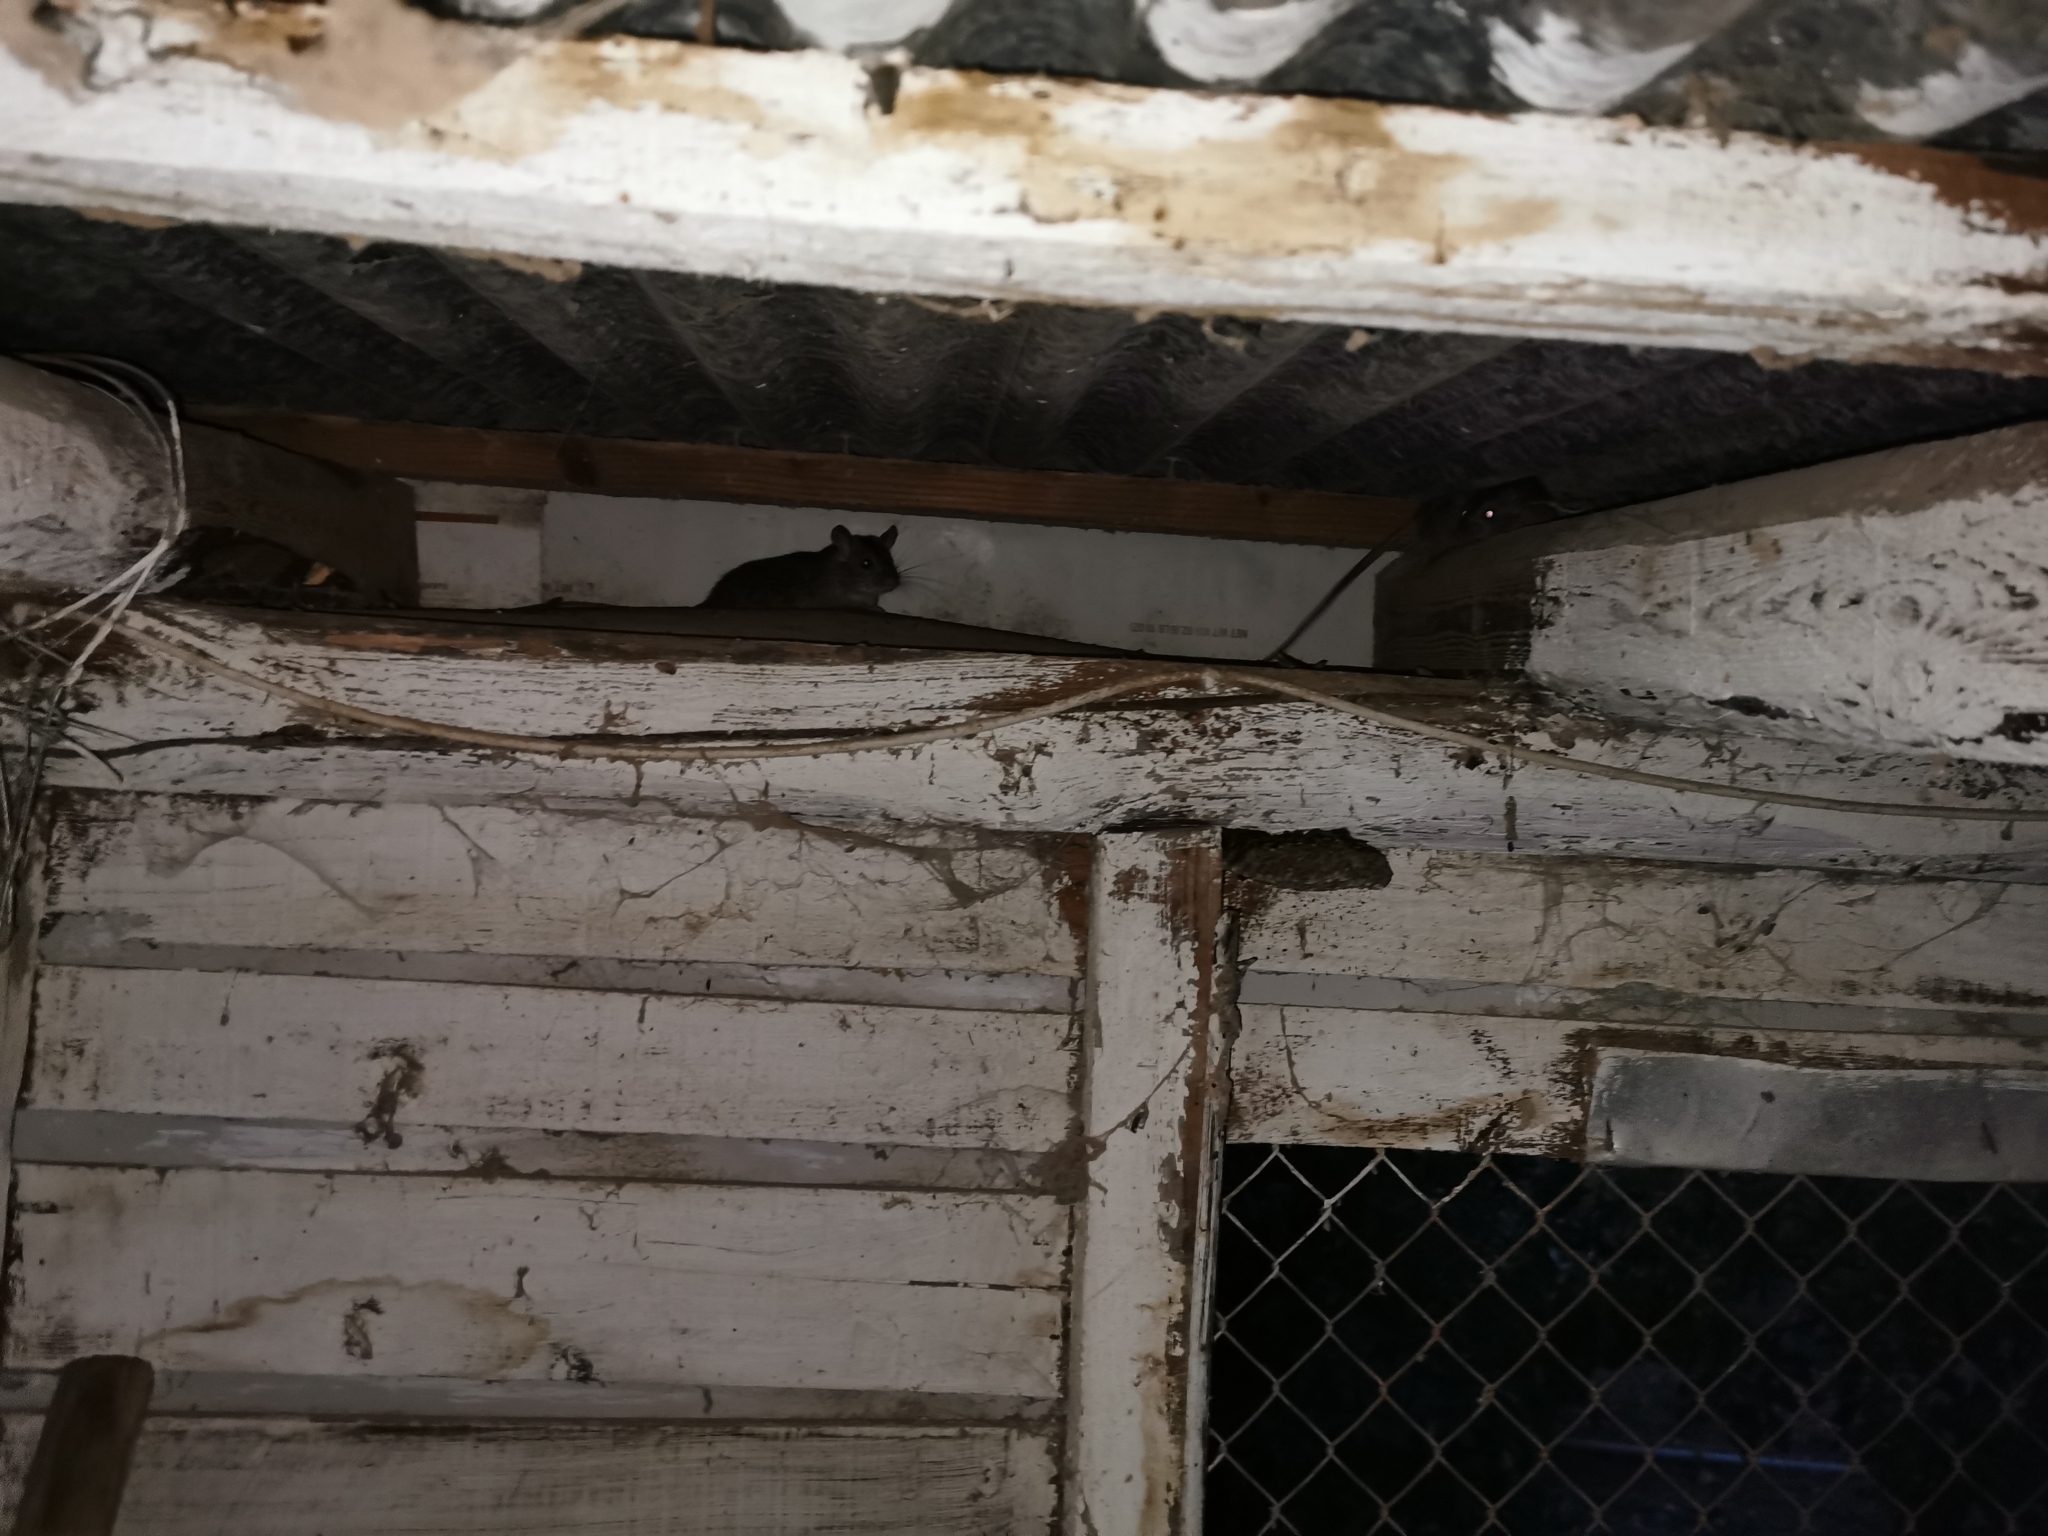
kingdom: Animalia
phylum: Chordata
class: Mammalia
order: Rodentia
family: Muridae
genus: Rattus
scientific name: Rattus rattus
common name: Black rat
